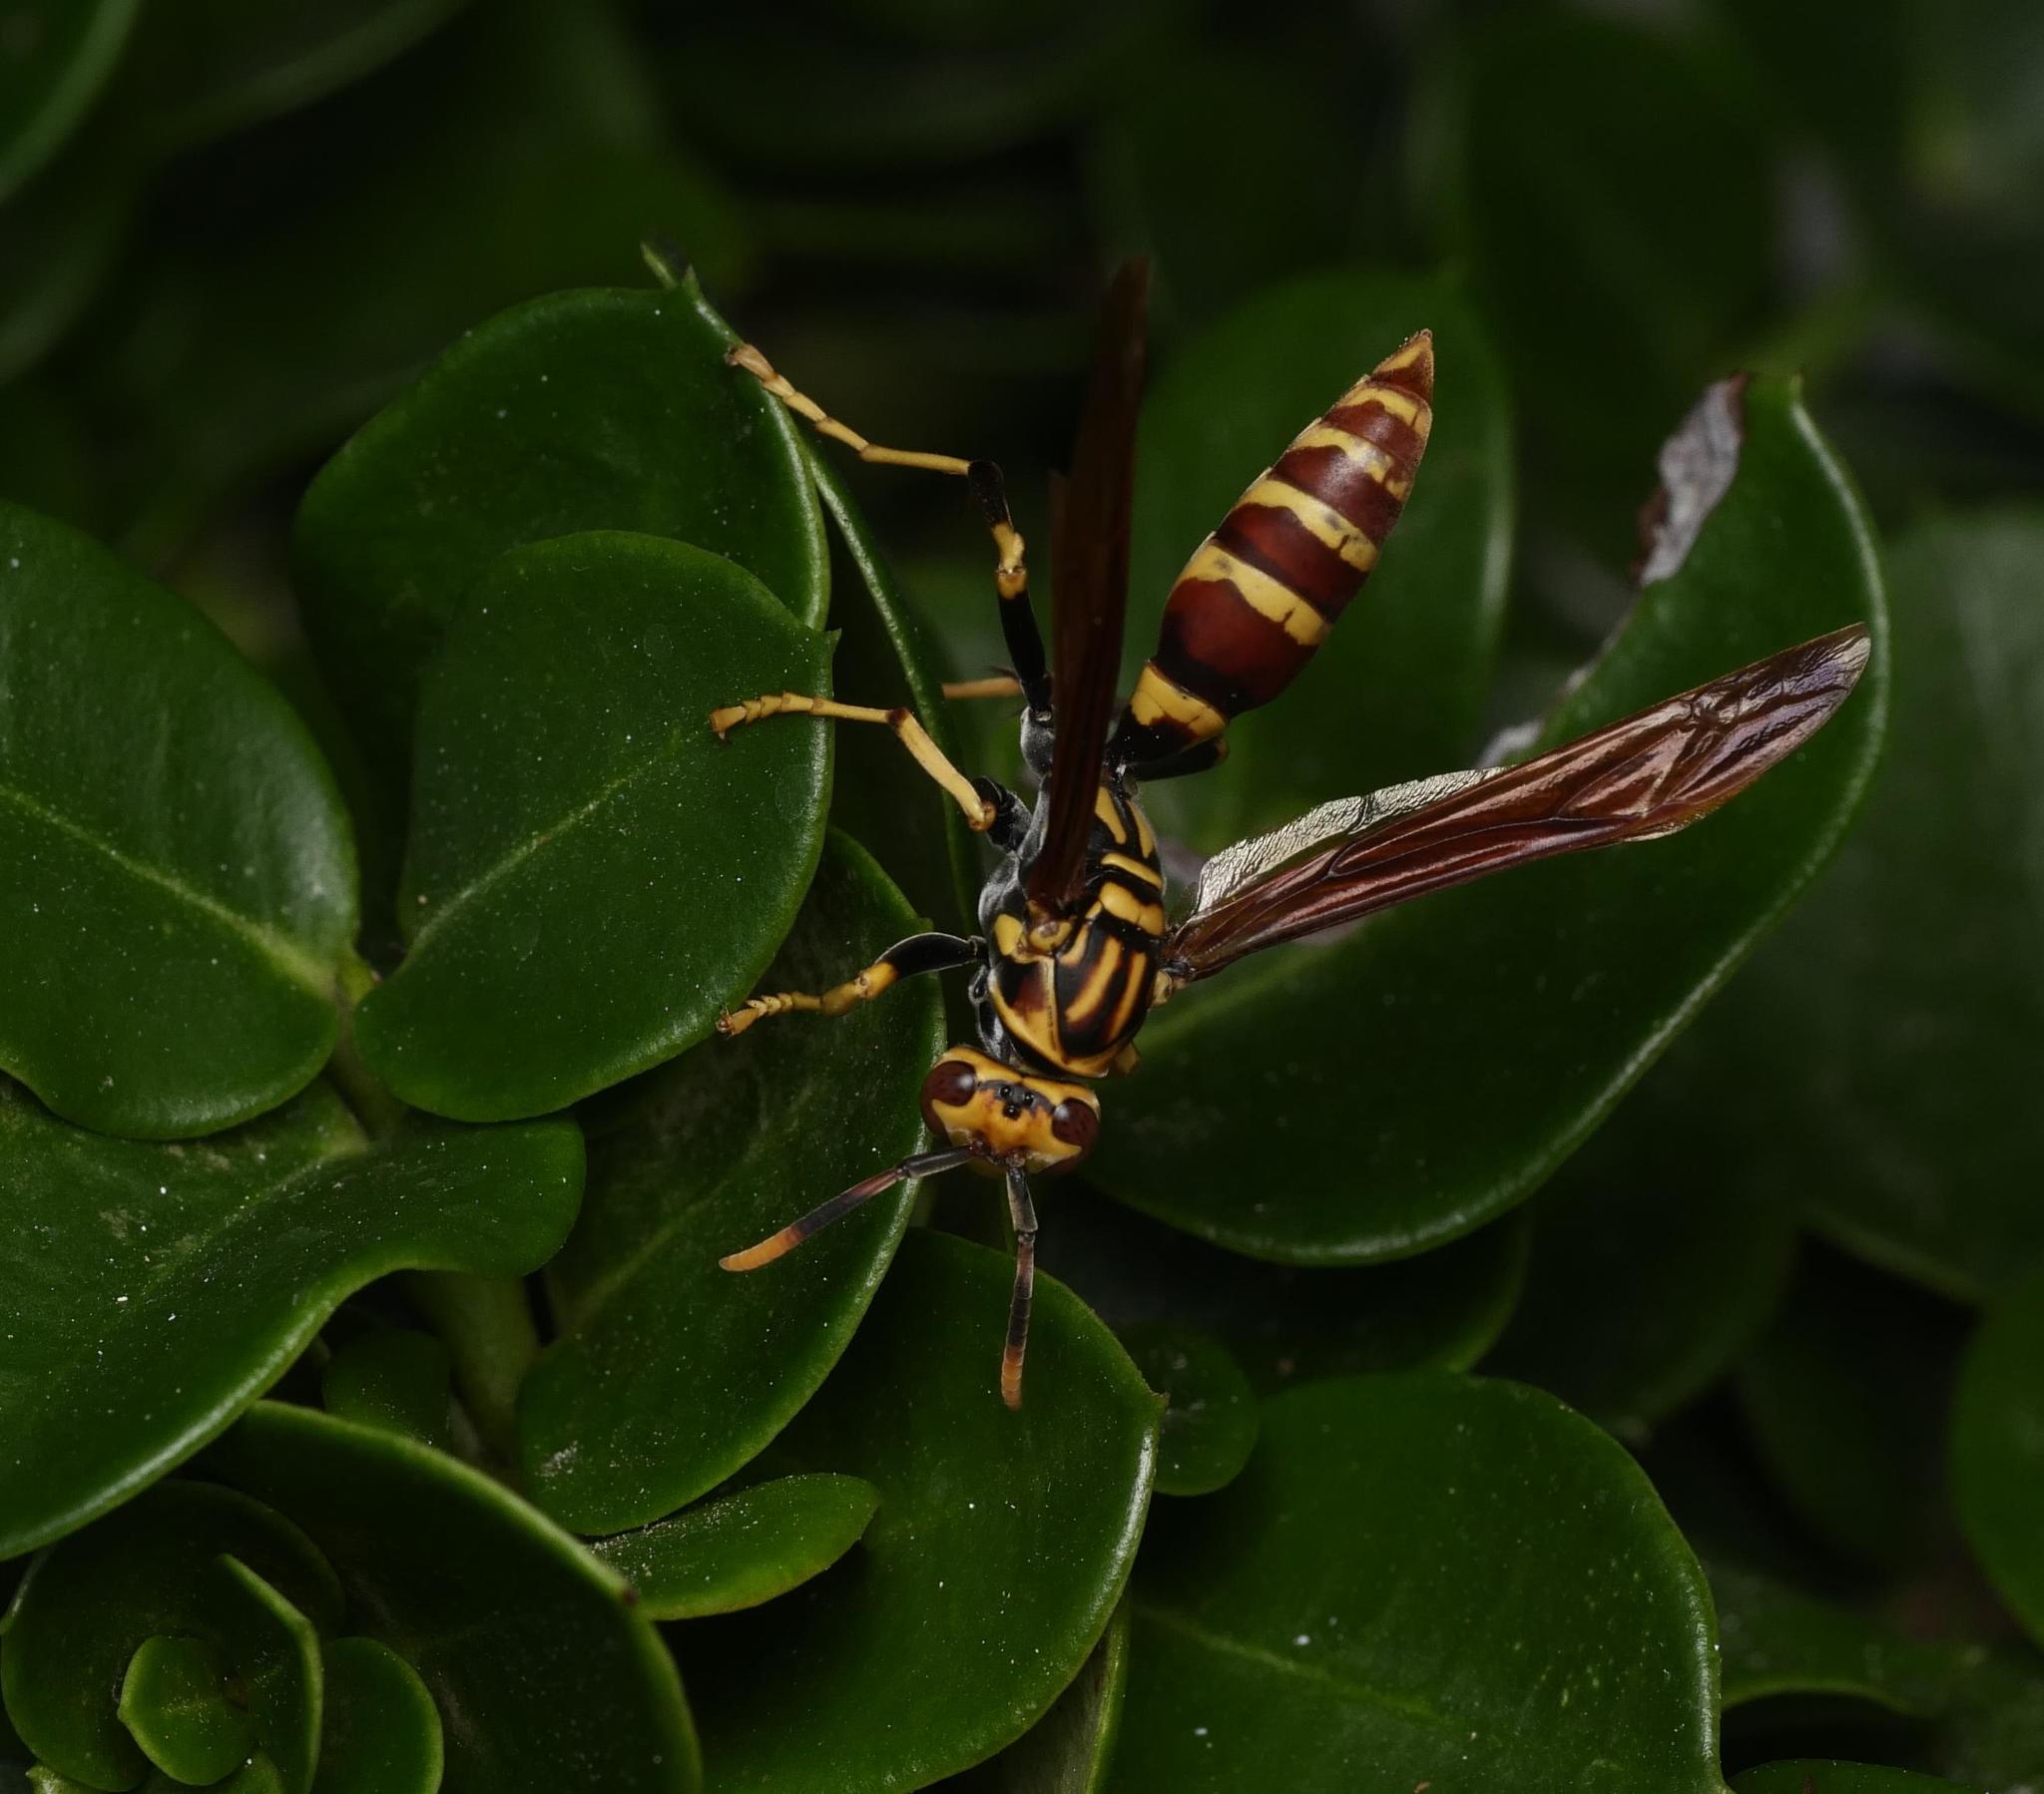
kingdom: Animalia
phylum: Arthropoda
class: Insecta
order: Hymenoptera
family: Eumenidae
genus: Polistes
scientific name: Polistes bequaertellus
